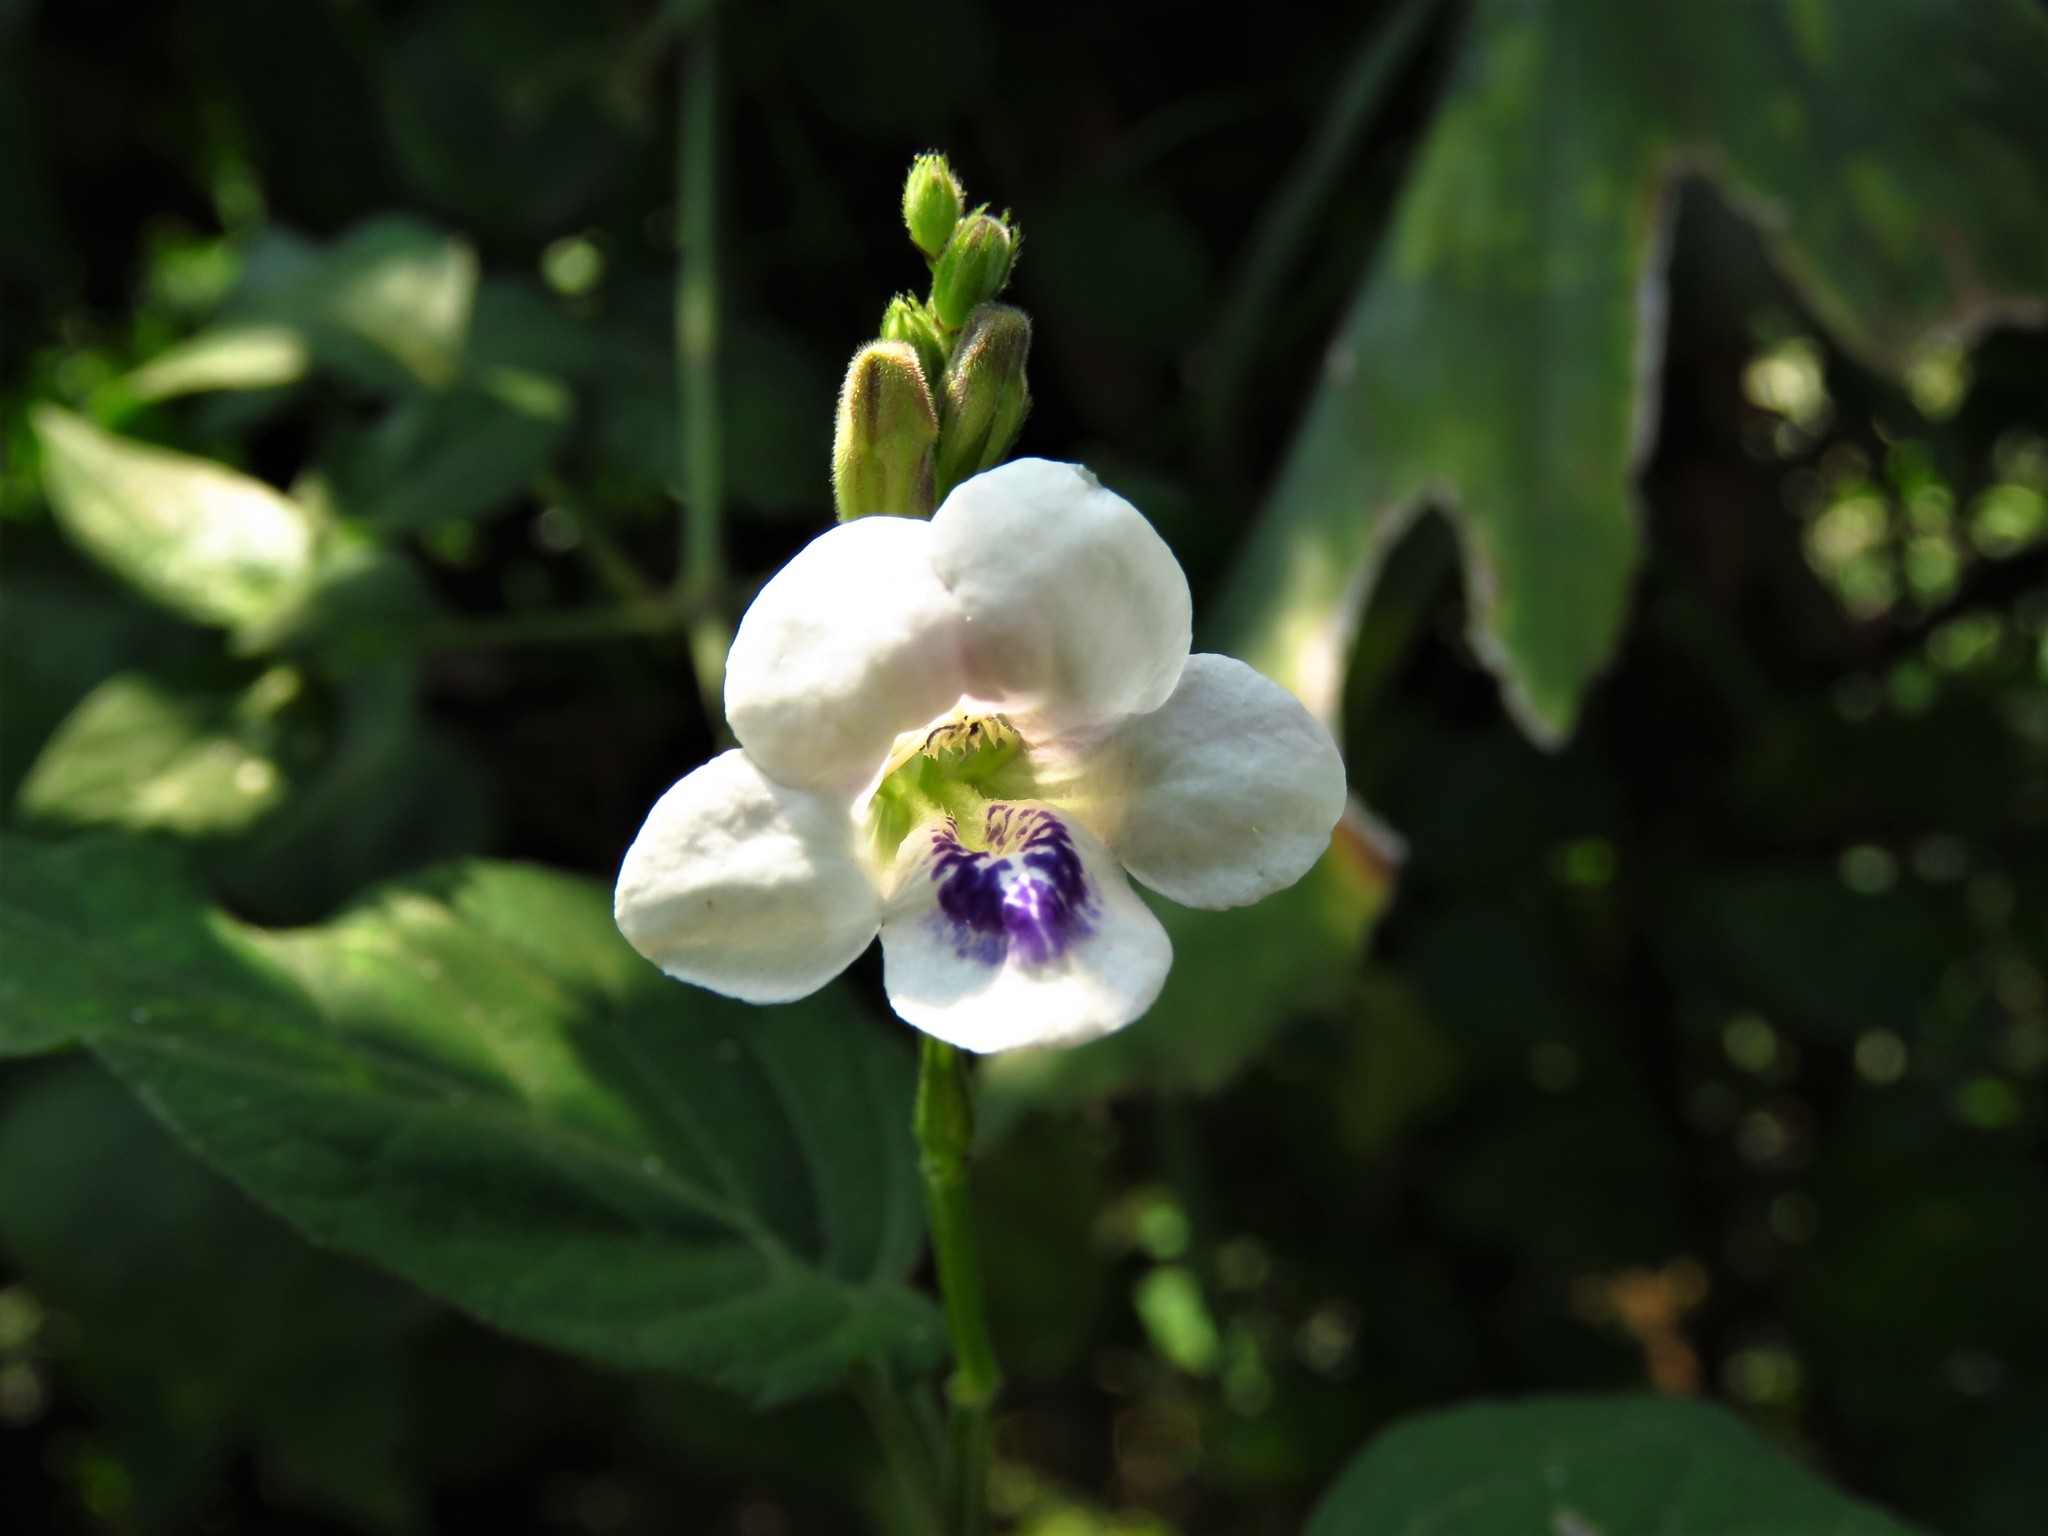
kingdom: Plantae
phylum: Tracheophyta
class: Magnoliopsida
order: Lamiales
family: Acanthaceae
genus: Asystasia
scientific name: Asystasia intrusa
